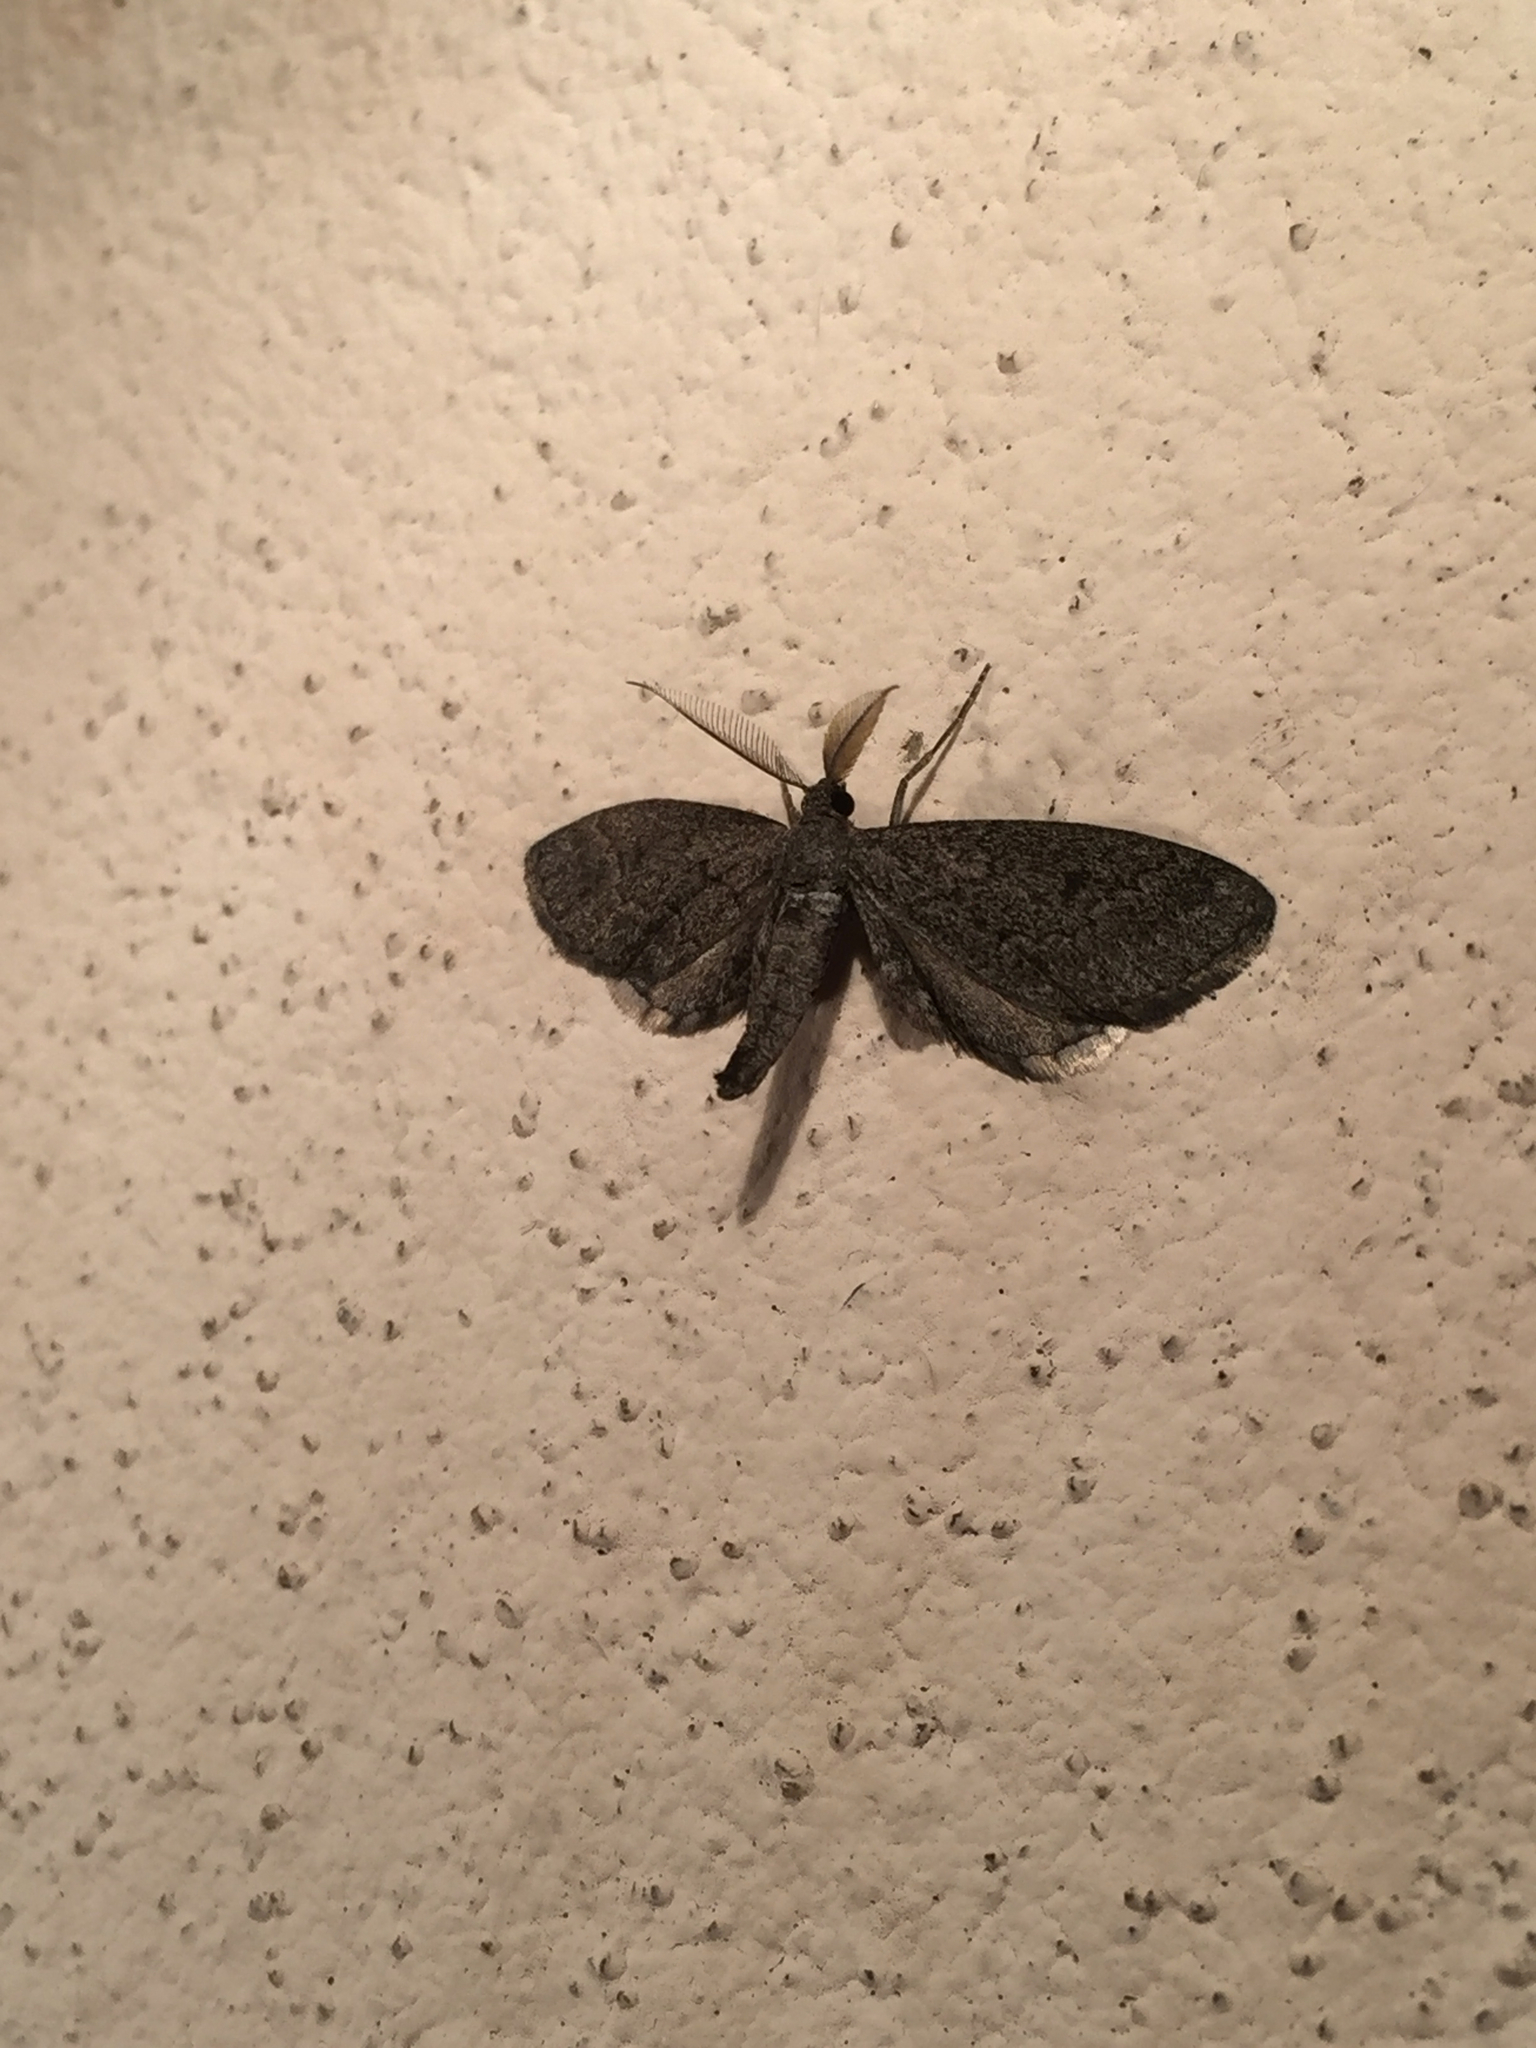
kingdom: Animalia
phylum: Arthropoda
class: Insecta
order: Lepidoptera
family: Geometridae
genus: Synglochis
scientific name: Synglochis perumbraria
